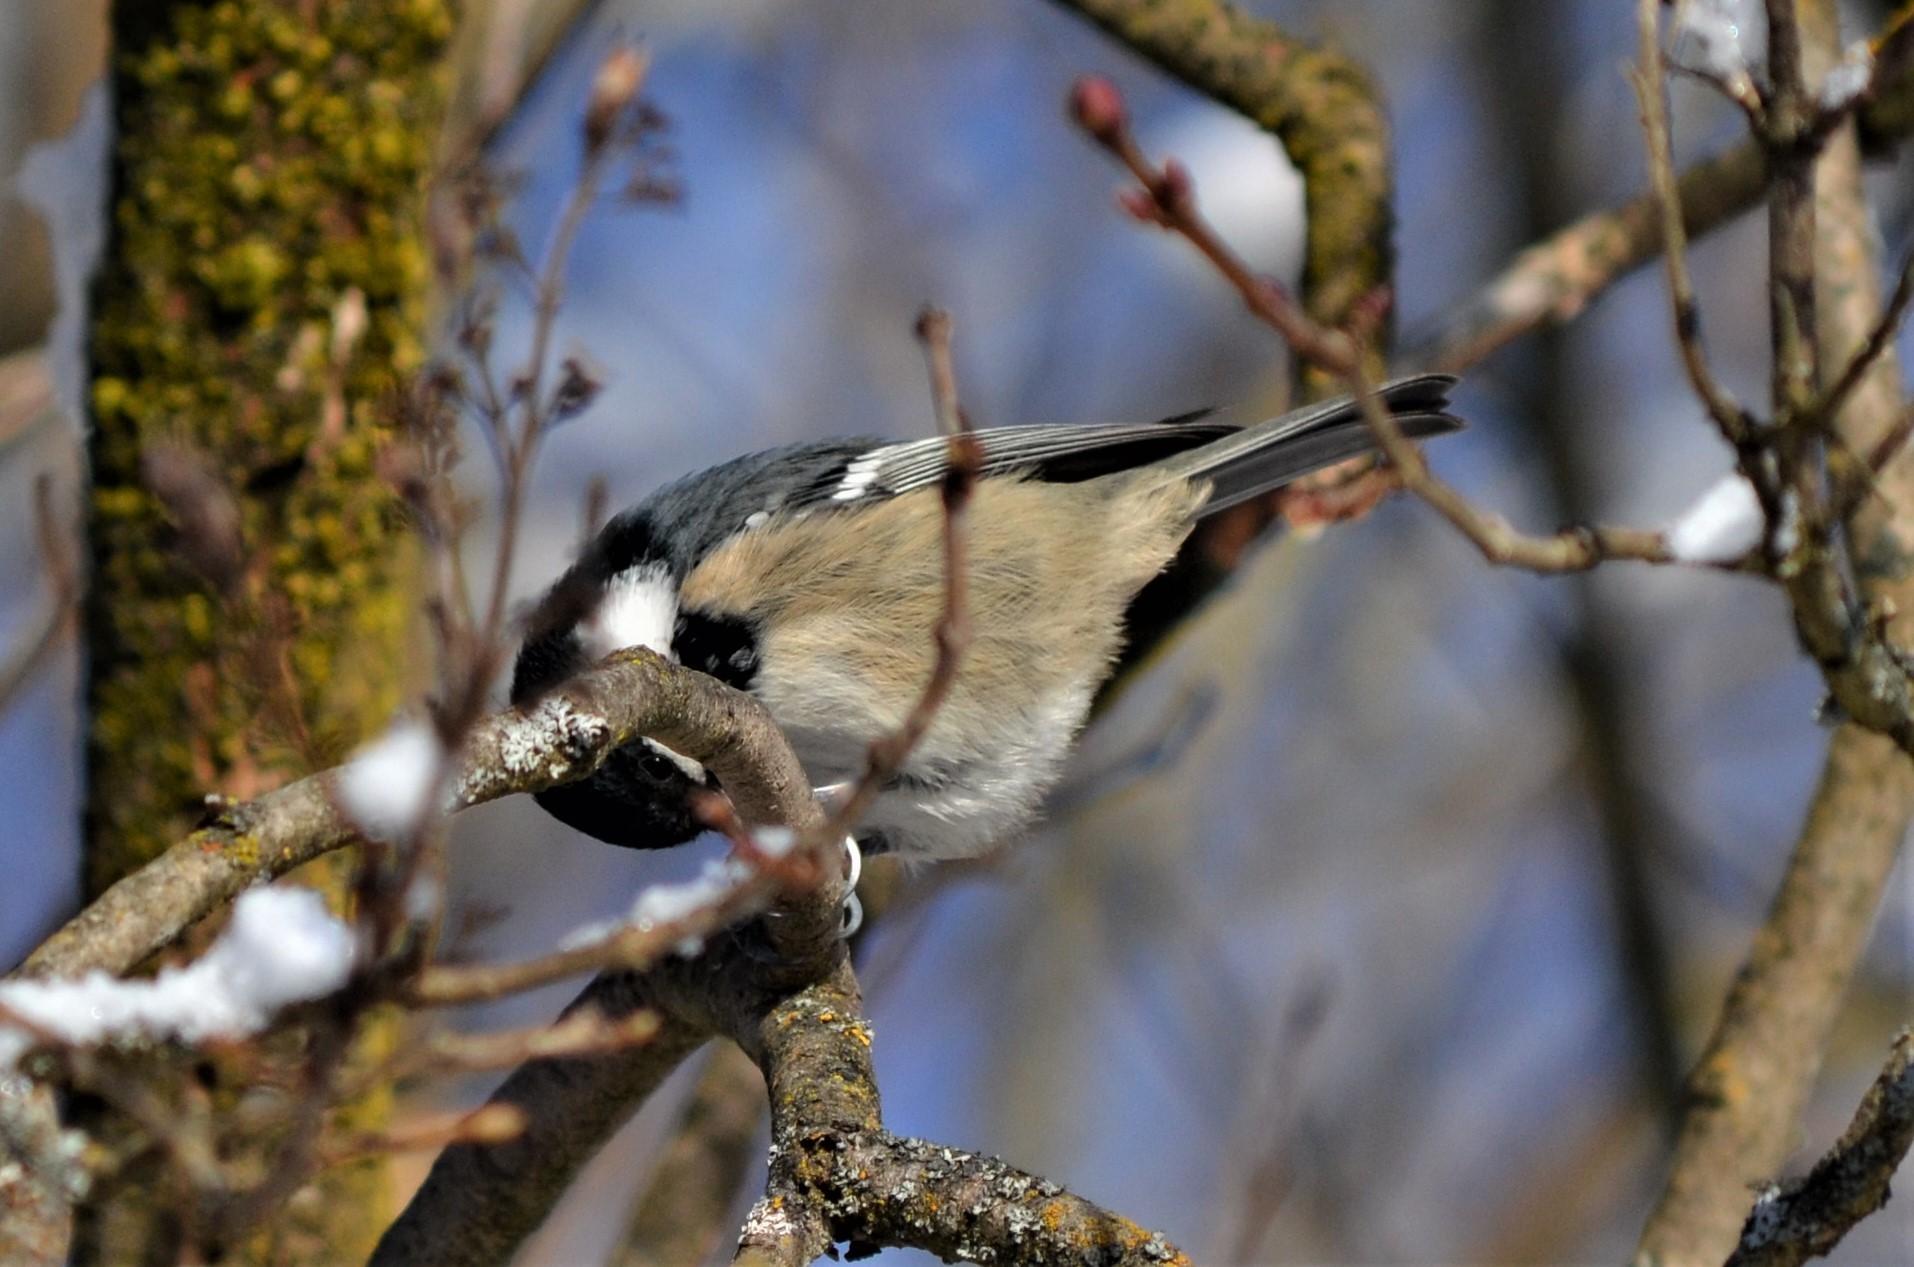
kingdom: Animalia
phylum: Chordata
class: Aves
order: Passeriformes
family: Paridae
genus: Periparus
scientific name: Periparus ater
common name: Coal tit
